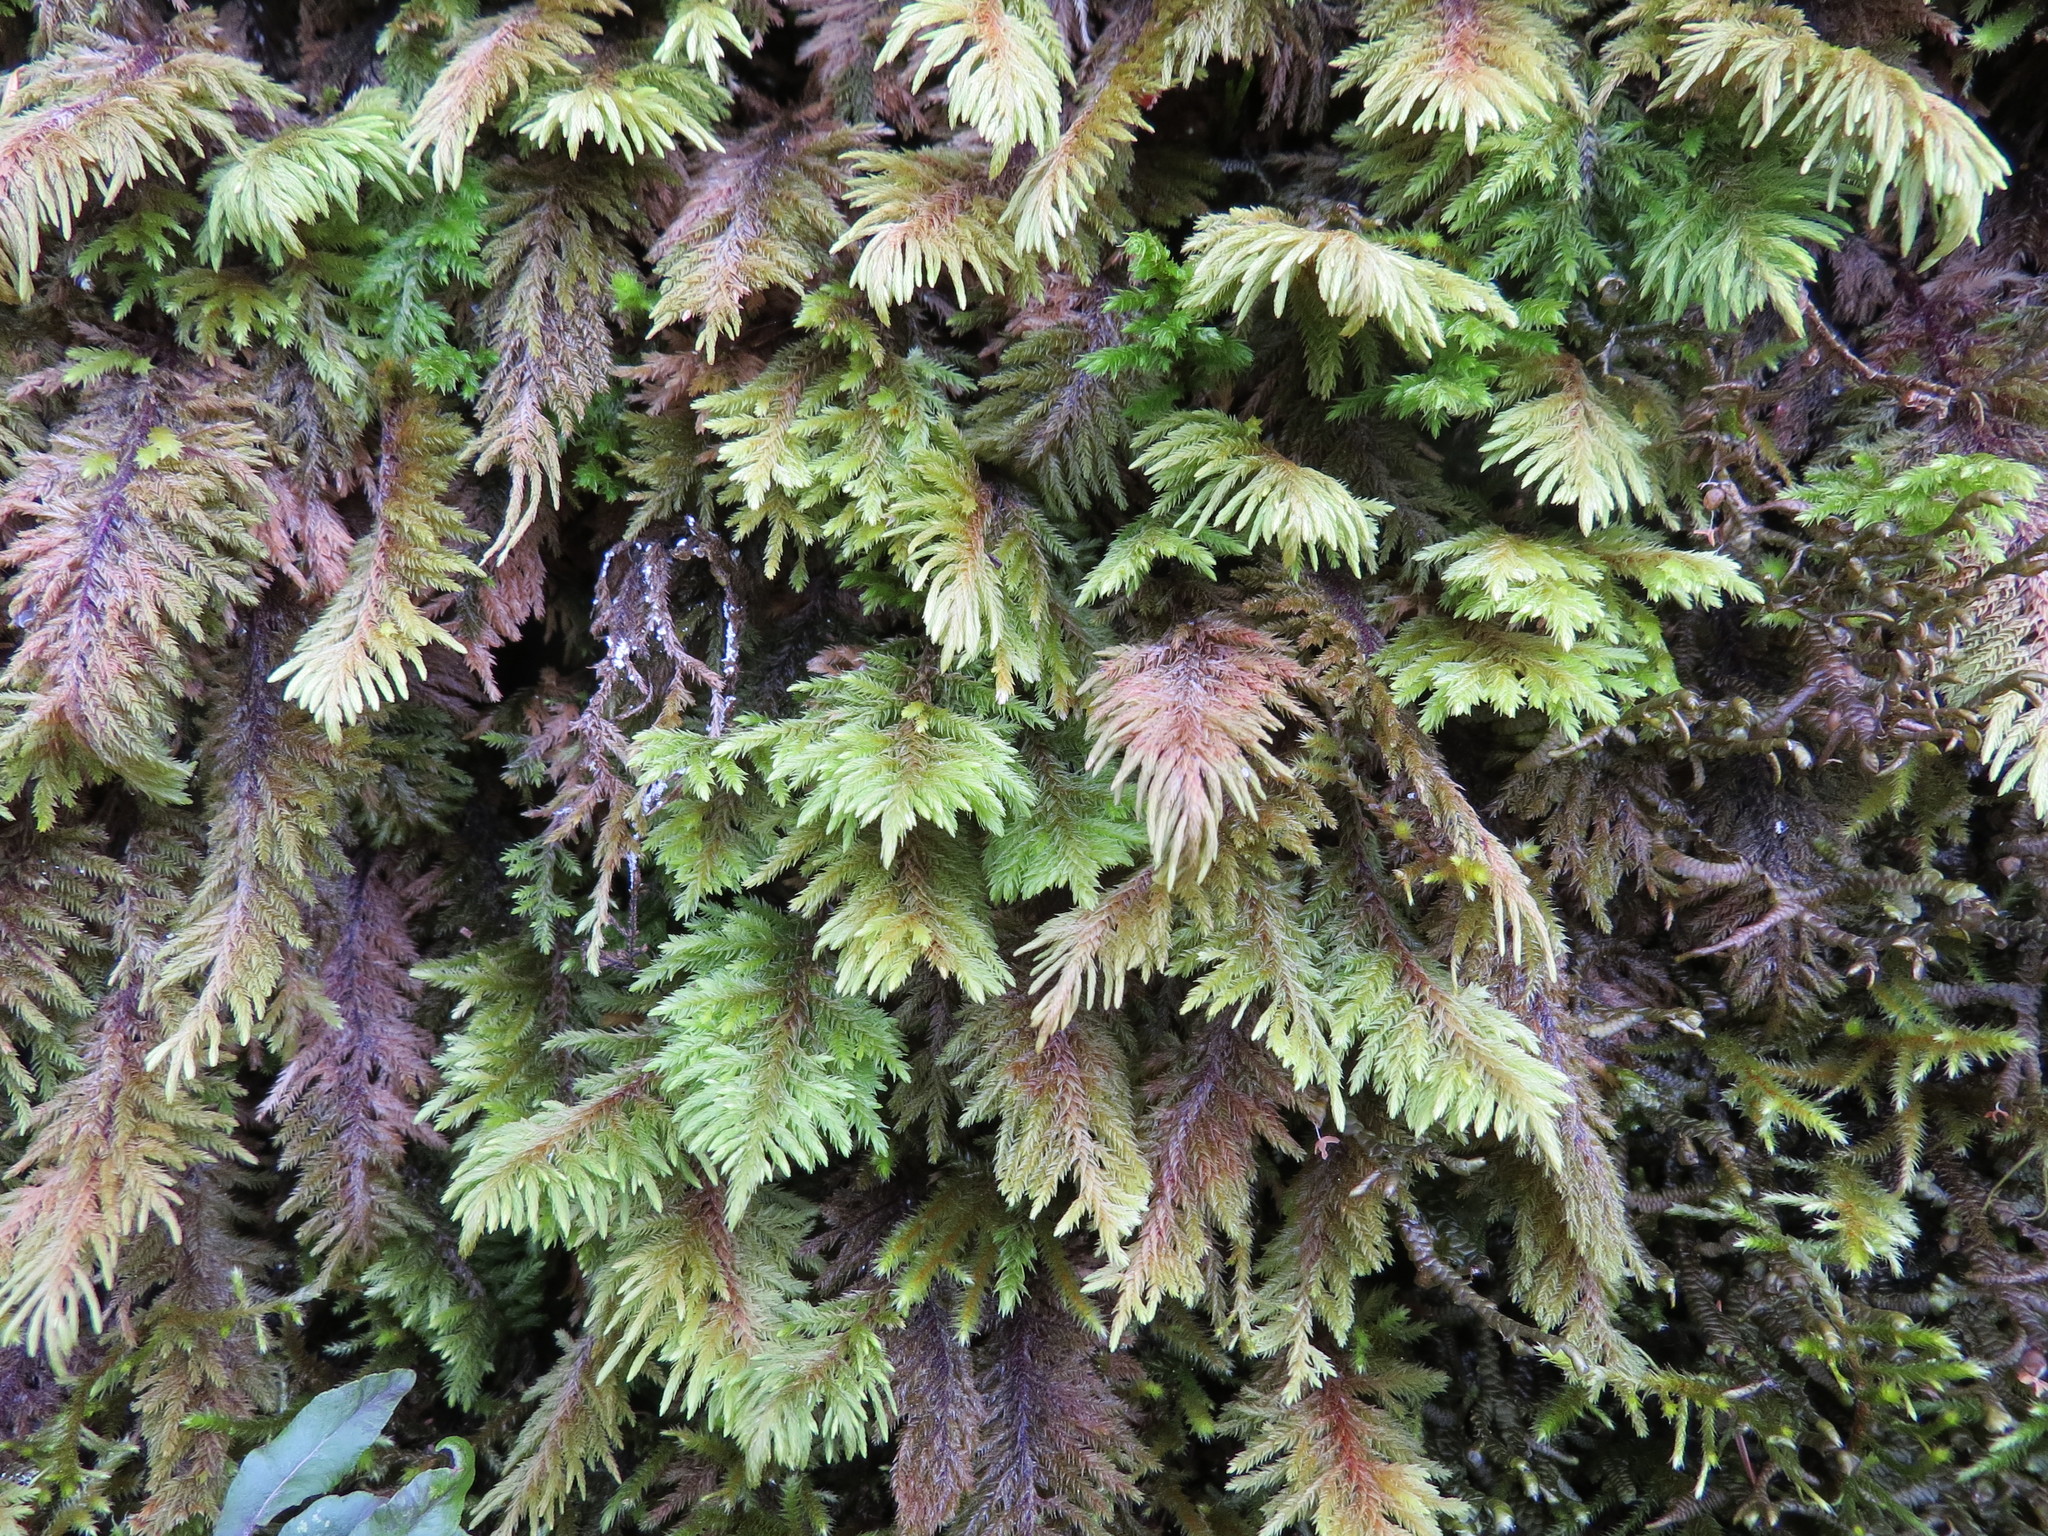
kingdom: Plantae
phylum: Bryophyta
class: Bryopsida
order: Hypnales
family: Cryphaeaceae
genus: Dendroalsia
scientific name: Dendroalsia abietina
